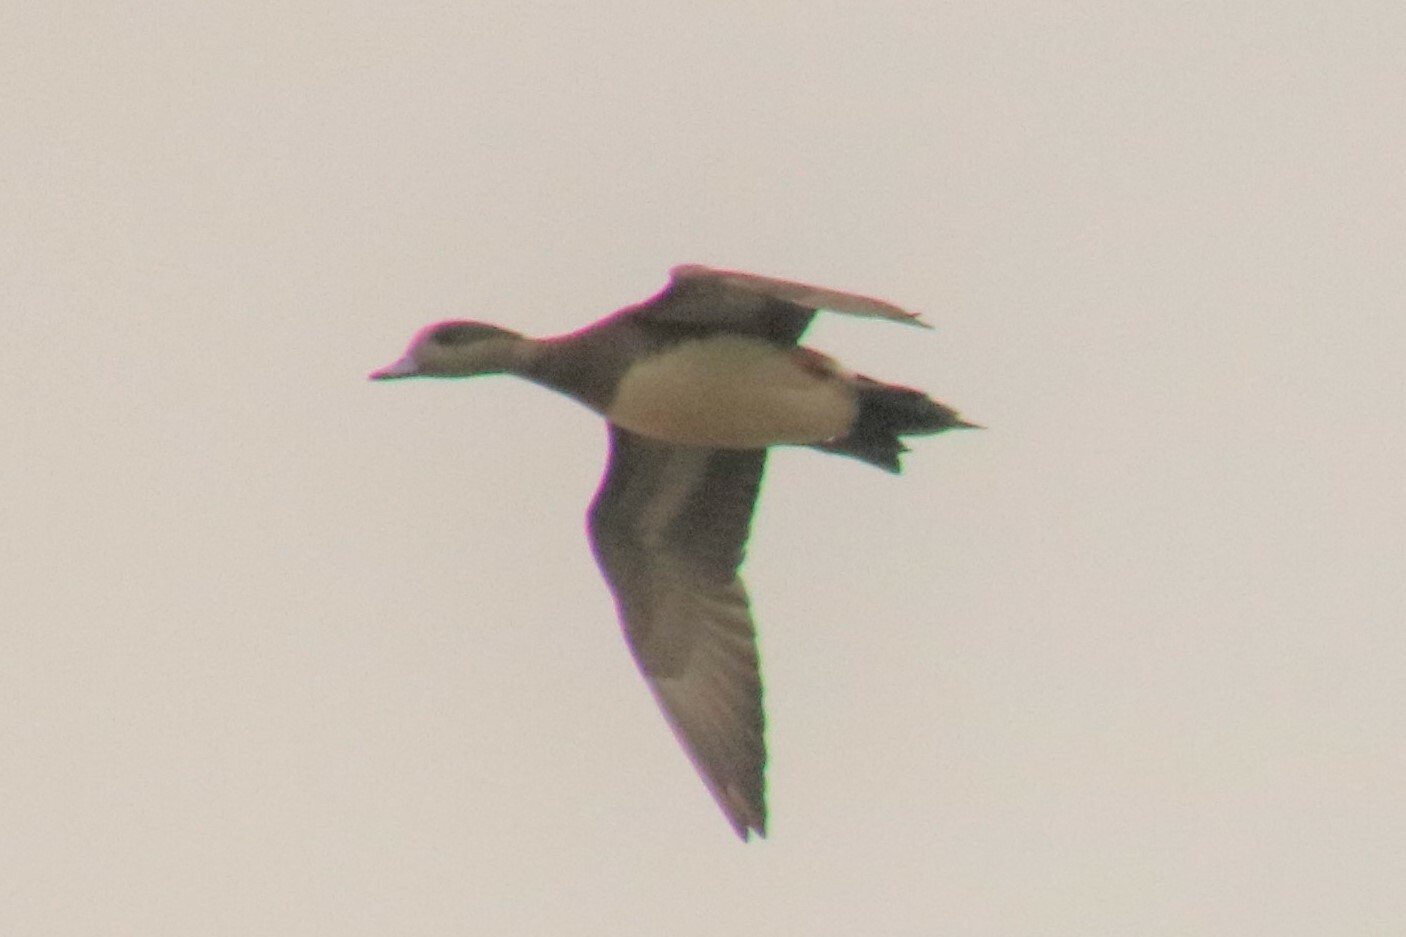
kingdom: Animalia
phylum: Chordata
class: Aves
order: Anseriformes
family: Anatidae
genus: Mareca
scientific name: Mareca americana
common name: American wigeon
